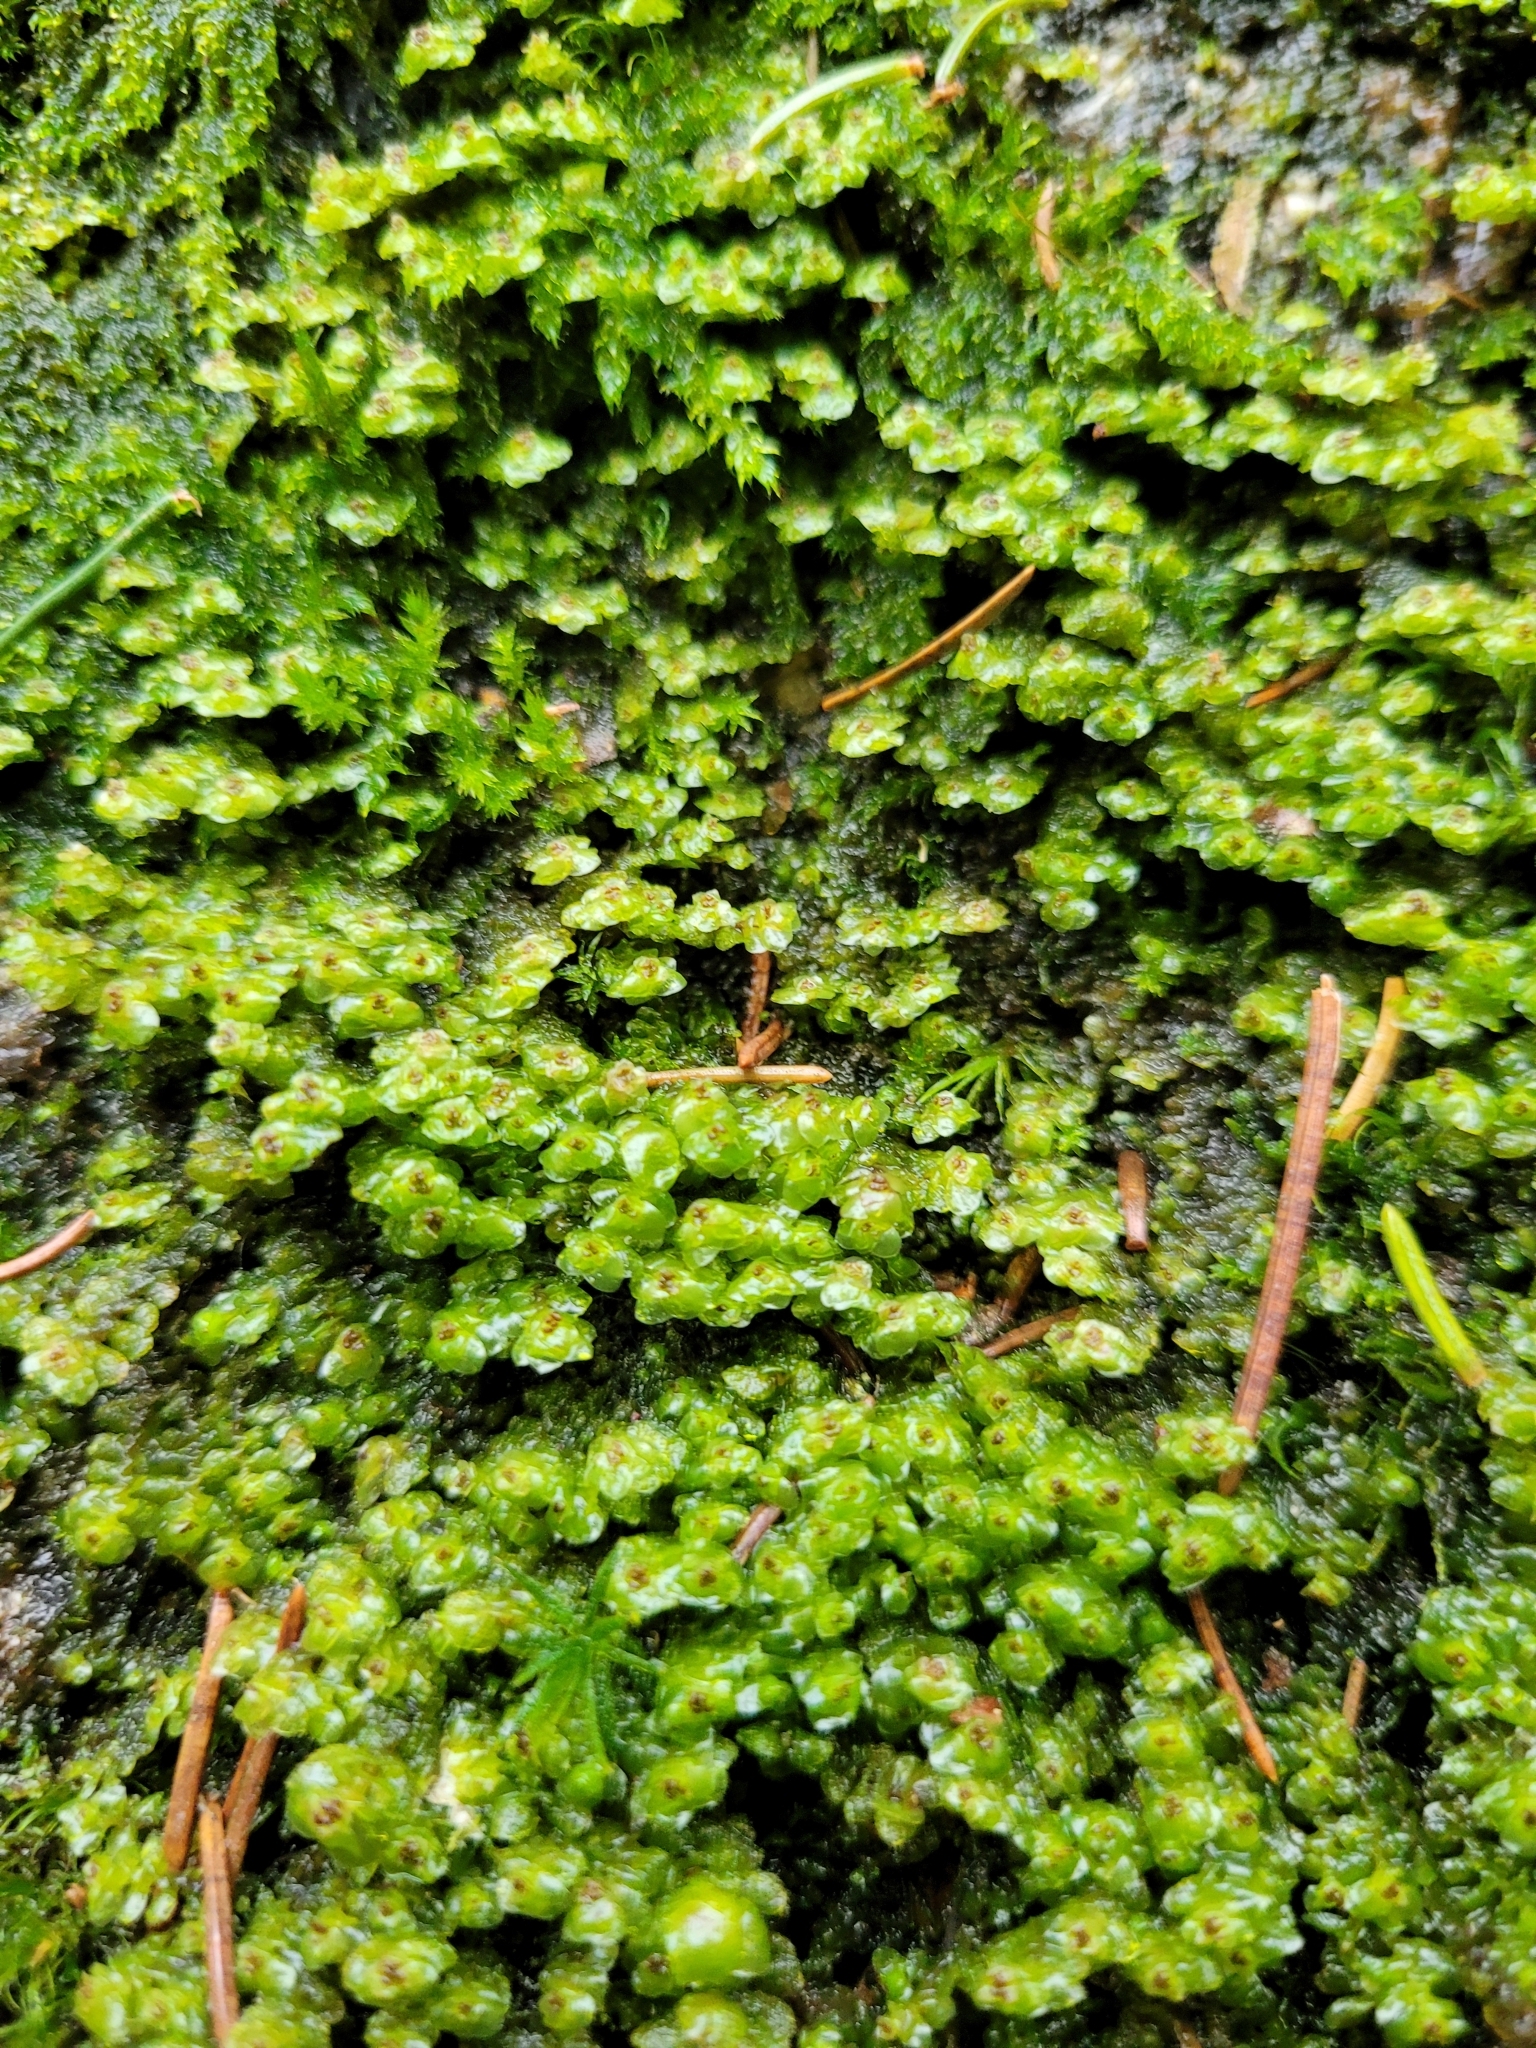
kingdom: Plantae
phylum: Marchantiophyta
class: Jungermanniopsida
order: Jungermanniales
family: Scapaniaceae
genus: Scapania
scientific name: Scapania nemorea
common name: Grove earwort
